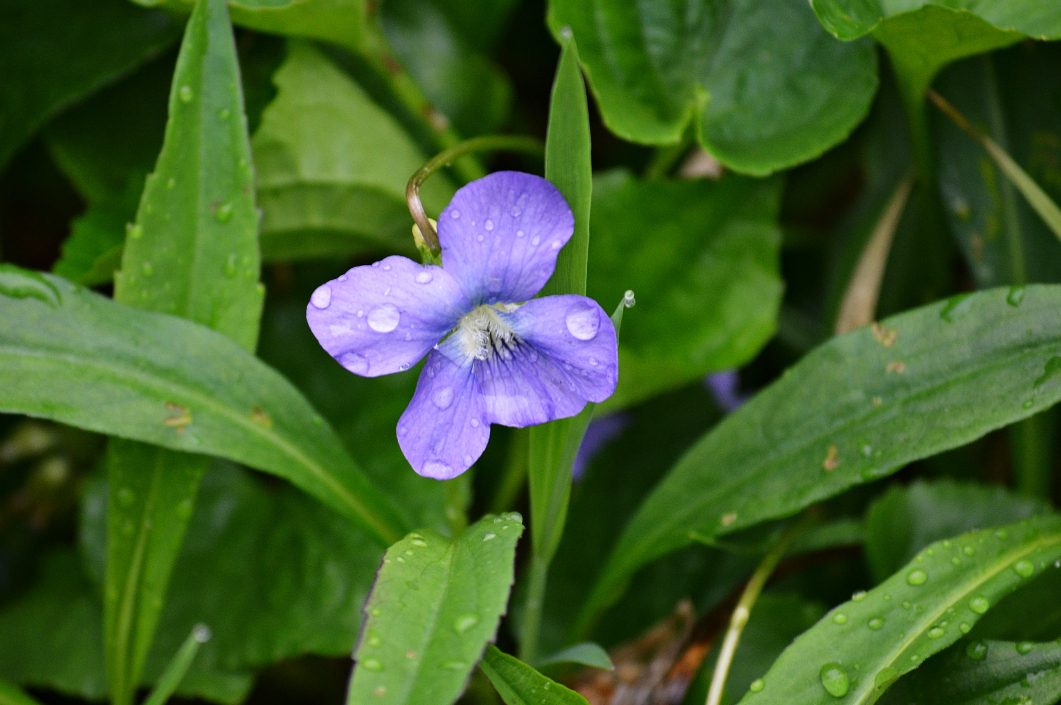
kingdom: Plantae
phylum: Tracheophyta
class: Magnoliopsida
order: Malpighiales
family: Violaceae
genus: Viola
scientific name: Viola sororia
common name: Dooryard violet
